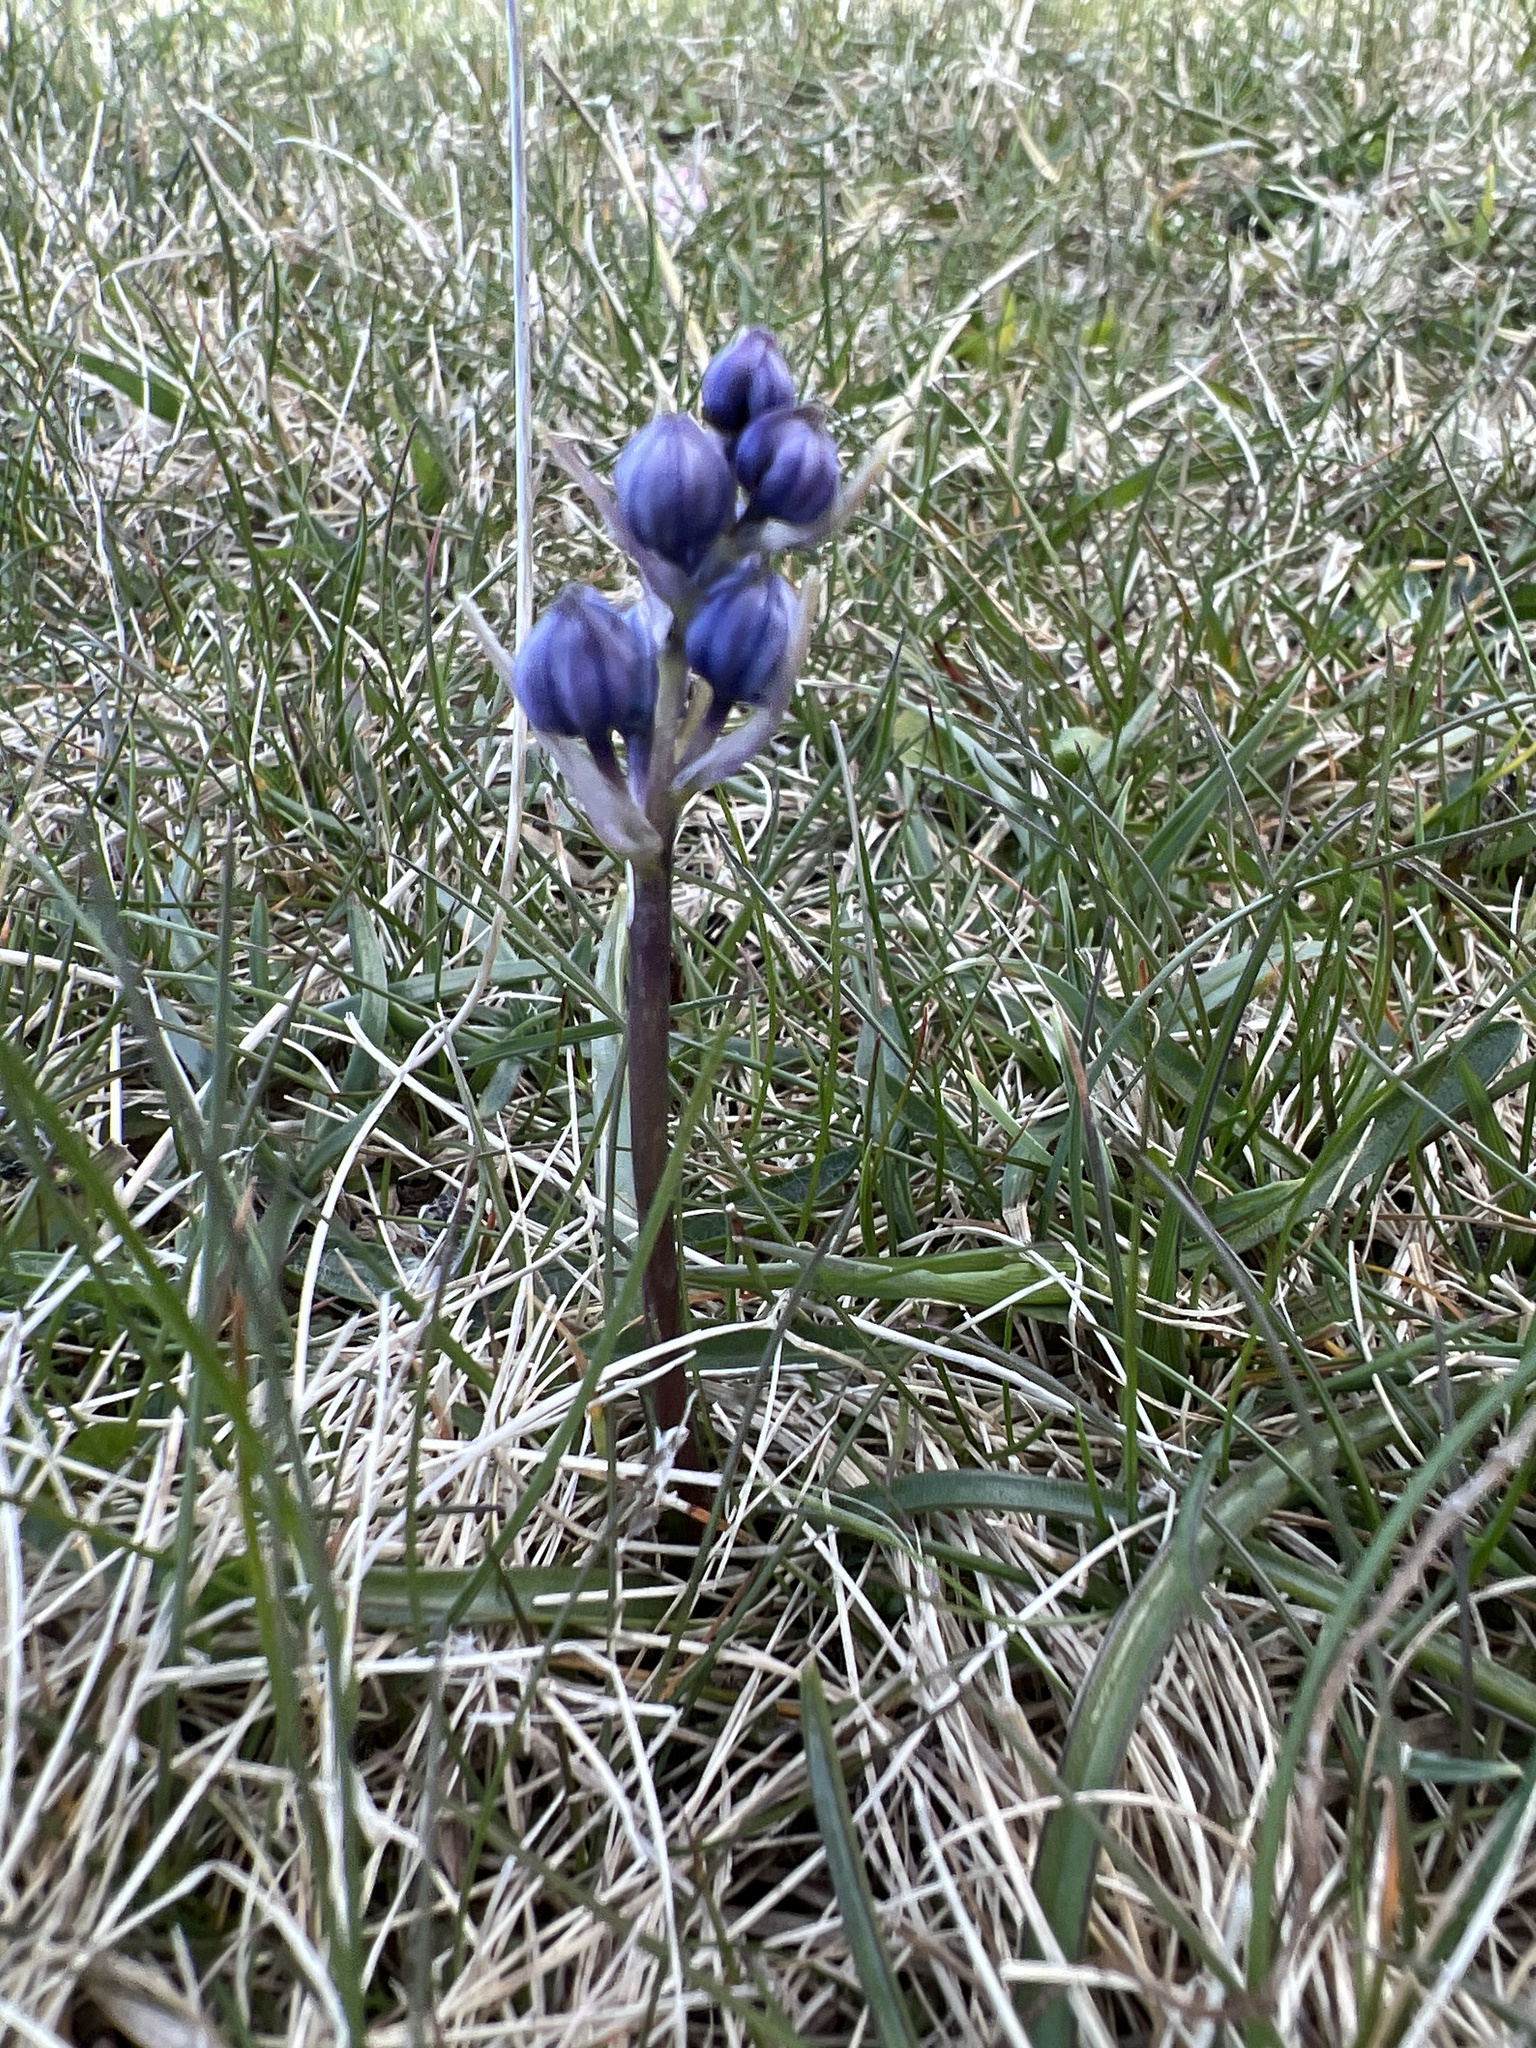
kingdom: Plantae
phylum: Tracheophyta
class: Liliopsida
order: Asparagales
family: Asparagaceae
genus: Scilla
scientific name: Scilla verna
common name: Spring squill
